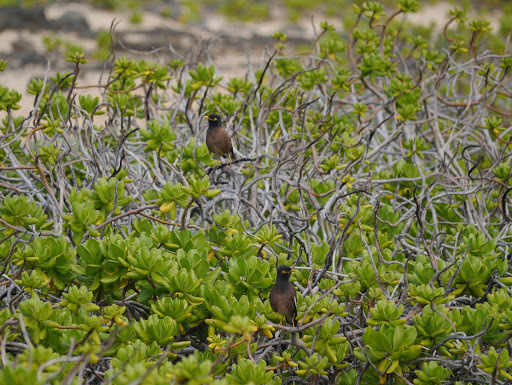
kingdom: Animalia
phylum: Chordata
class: Aves
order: Passeriformes
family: Sturnidae
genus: Acridotheres
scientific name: Acridotheres tristis
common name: Common myna
